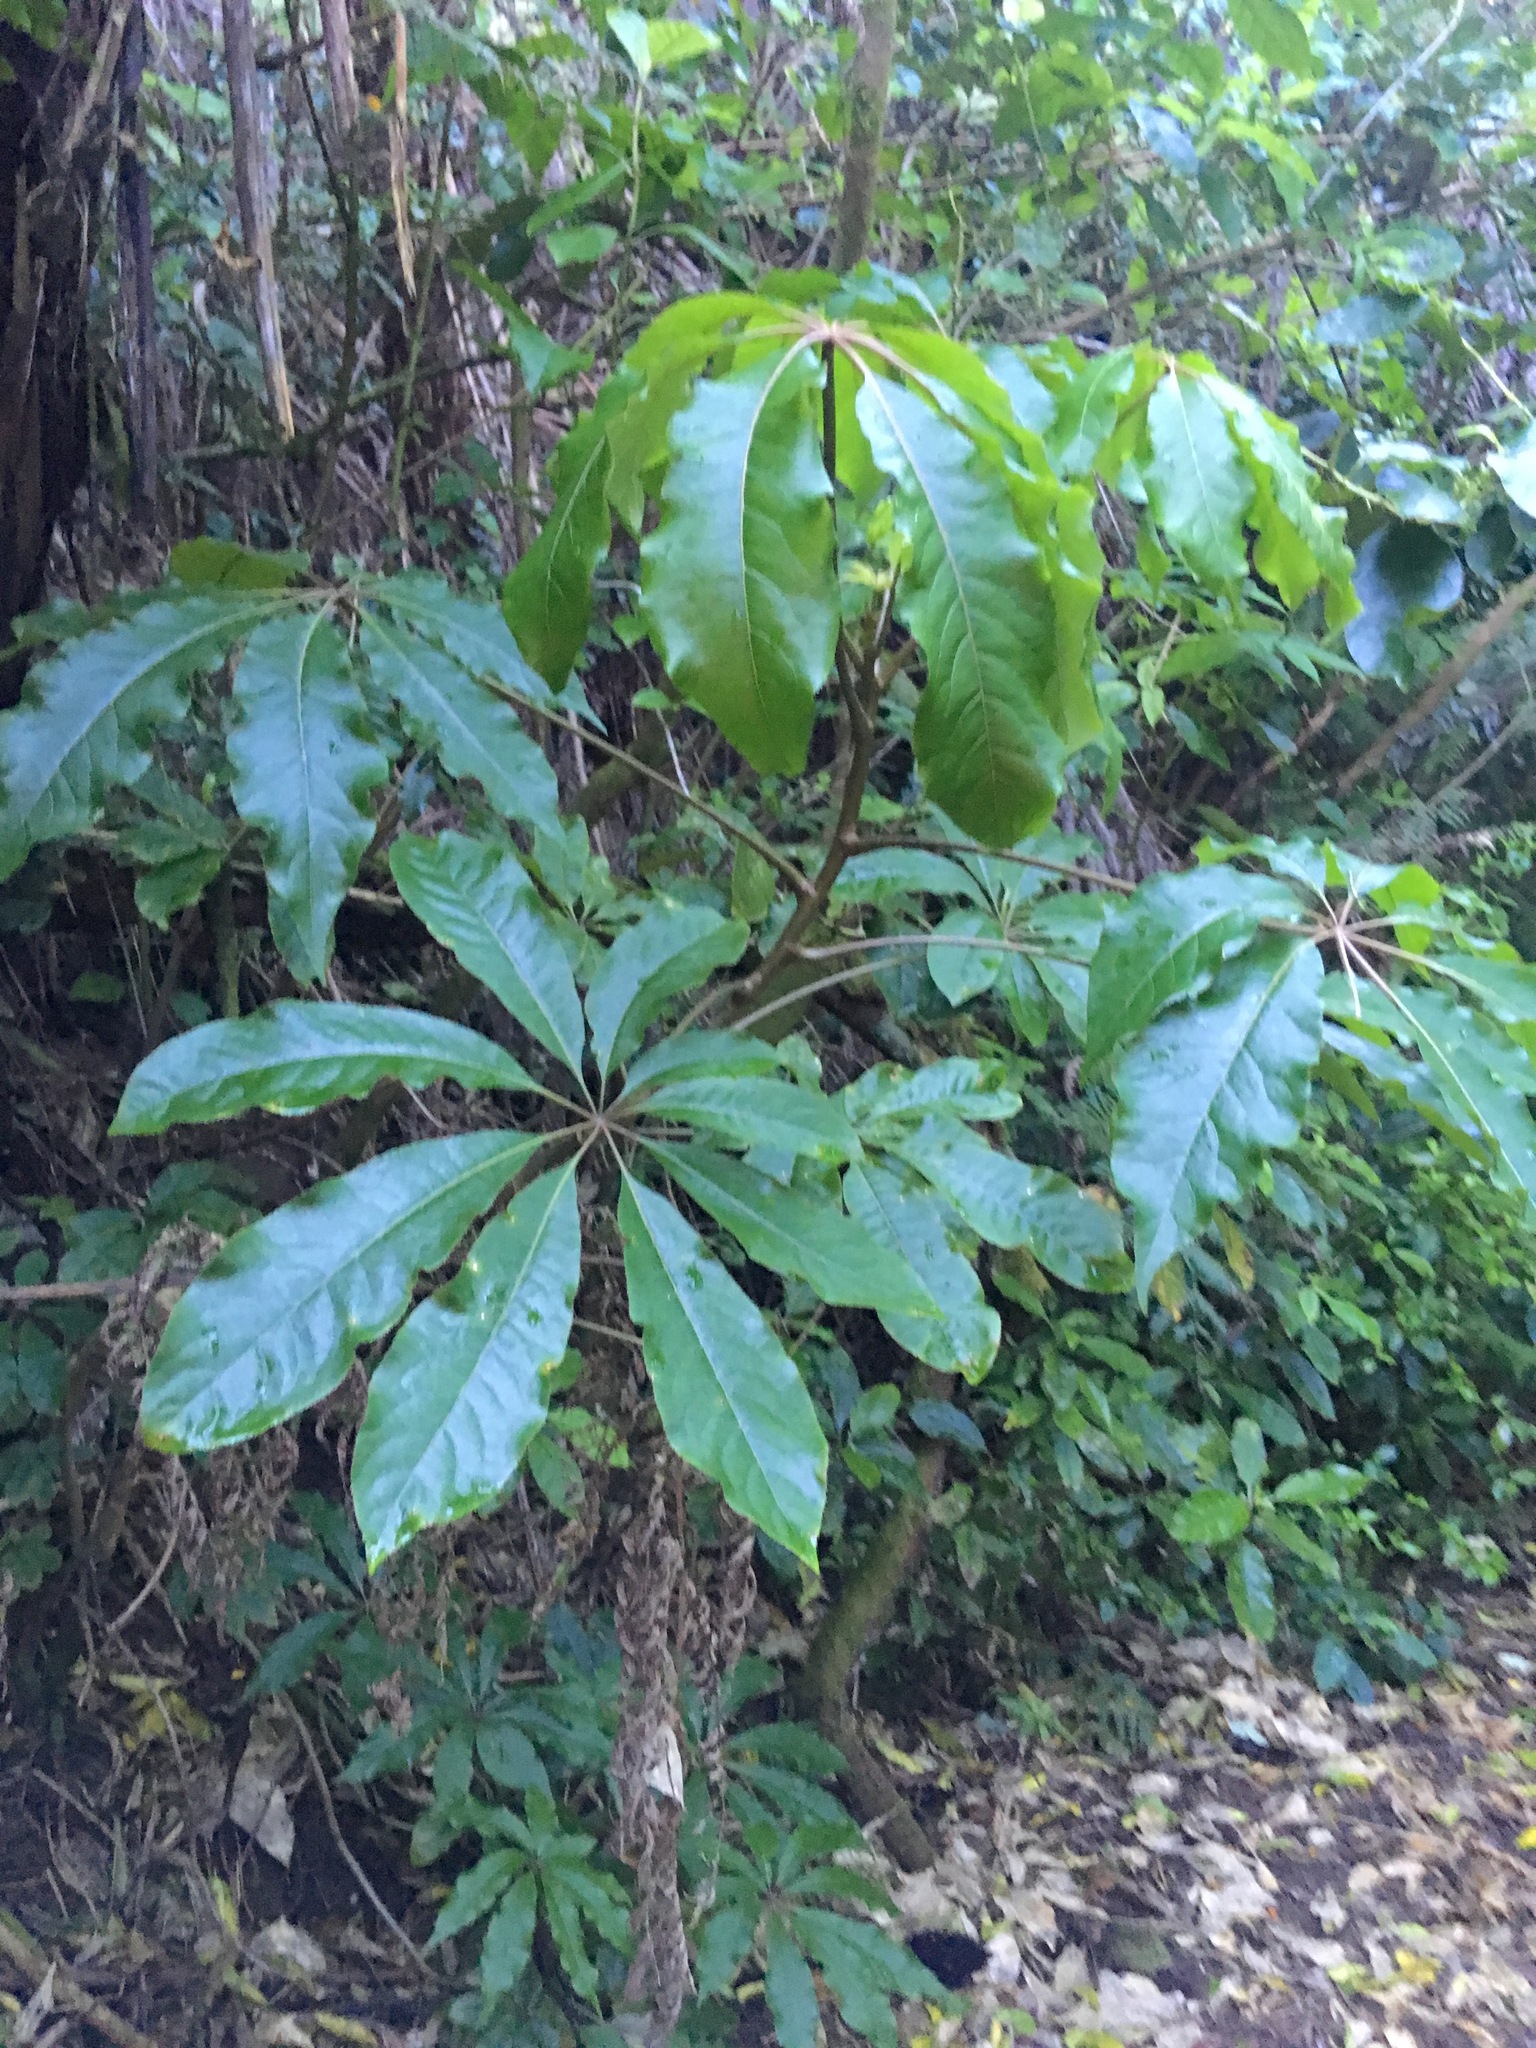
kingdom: Plantae
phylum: Tracheophyta
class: Magnoliopsida
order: Apiales
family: Araliaceae
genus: Schefflera
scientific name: Schefflera digitata
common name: Pate
